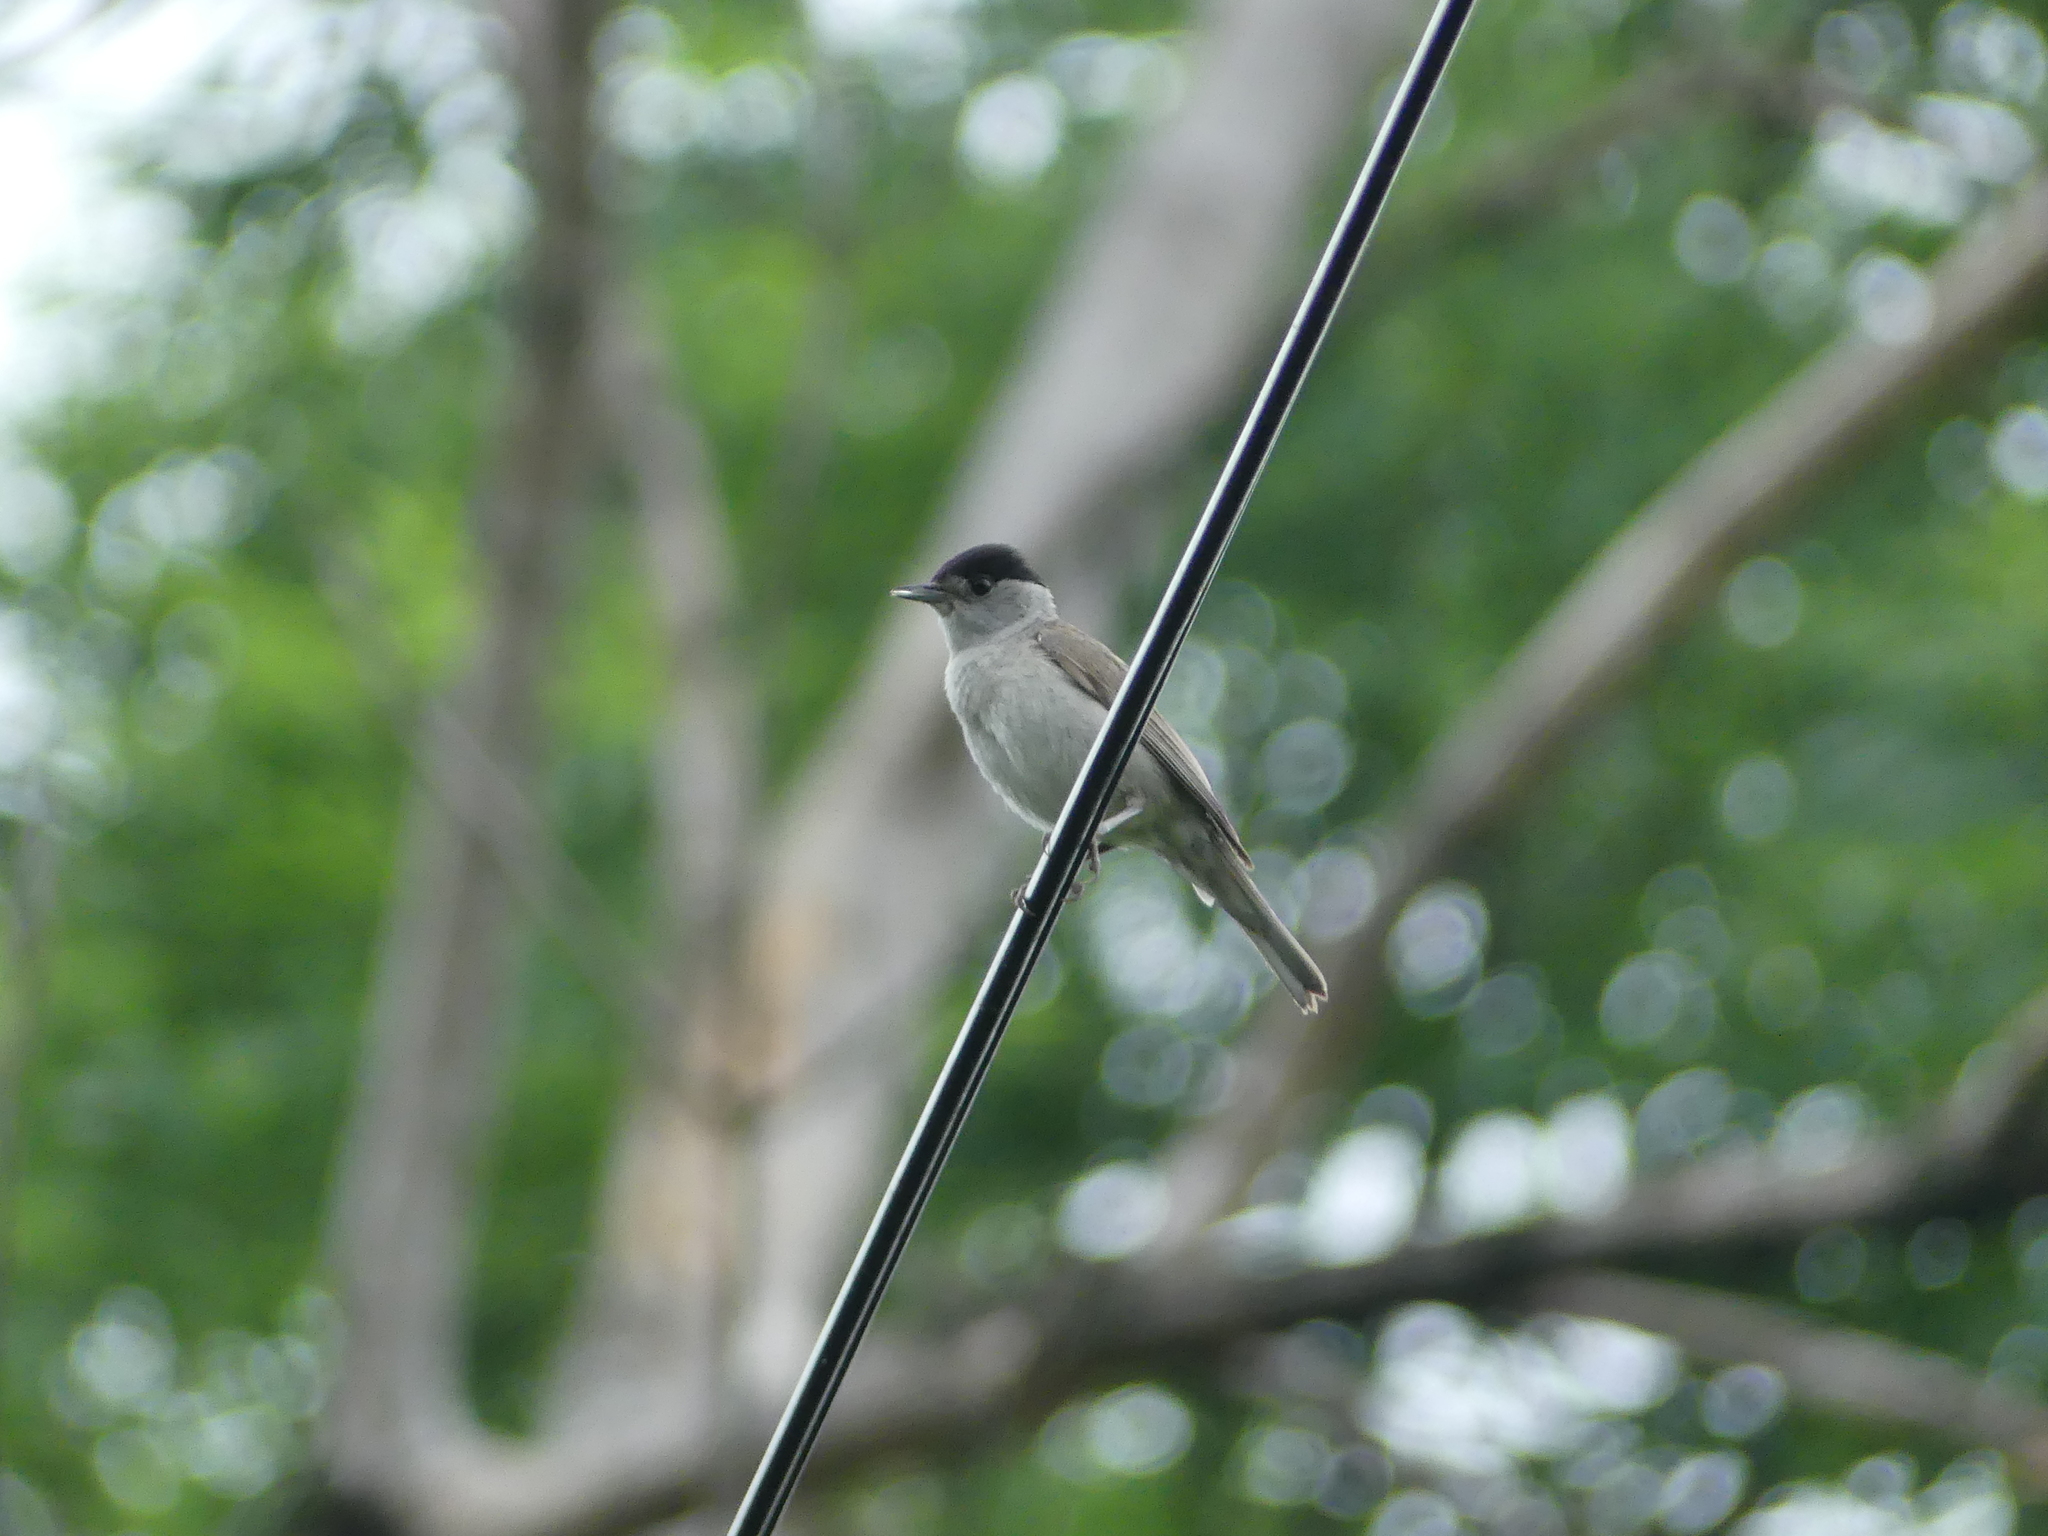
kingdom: Animalia
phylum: Chordata
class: Aves
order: Passeriformes
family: Sylviidae
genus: Sylvia
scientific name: Sylvia atricapilla
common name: Eurasian blackcap
